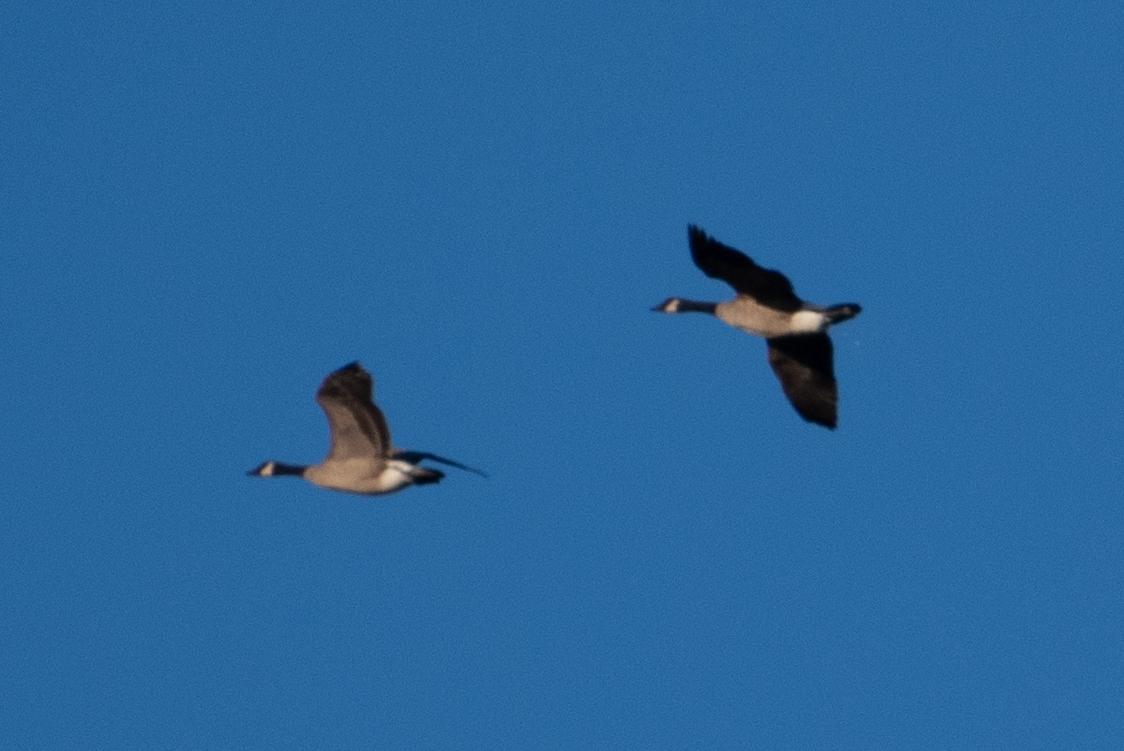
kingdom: Animalia
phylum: Chordata
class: Aves
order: Anseriformes
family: Anatidae
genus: Branta
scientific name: Branta canadensis
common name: Canada goose
